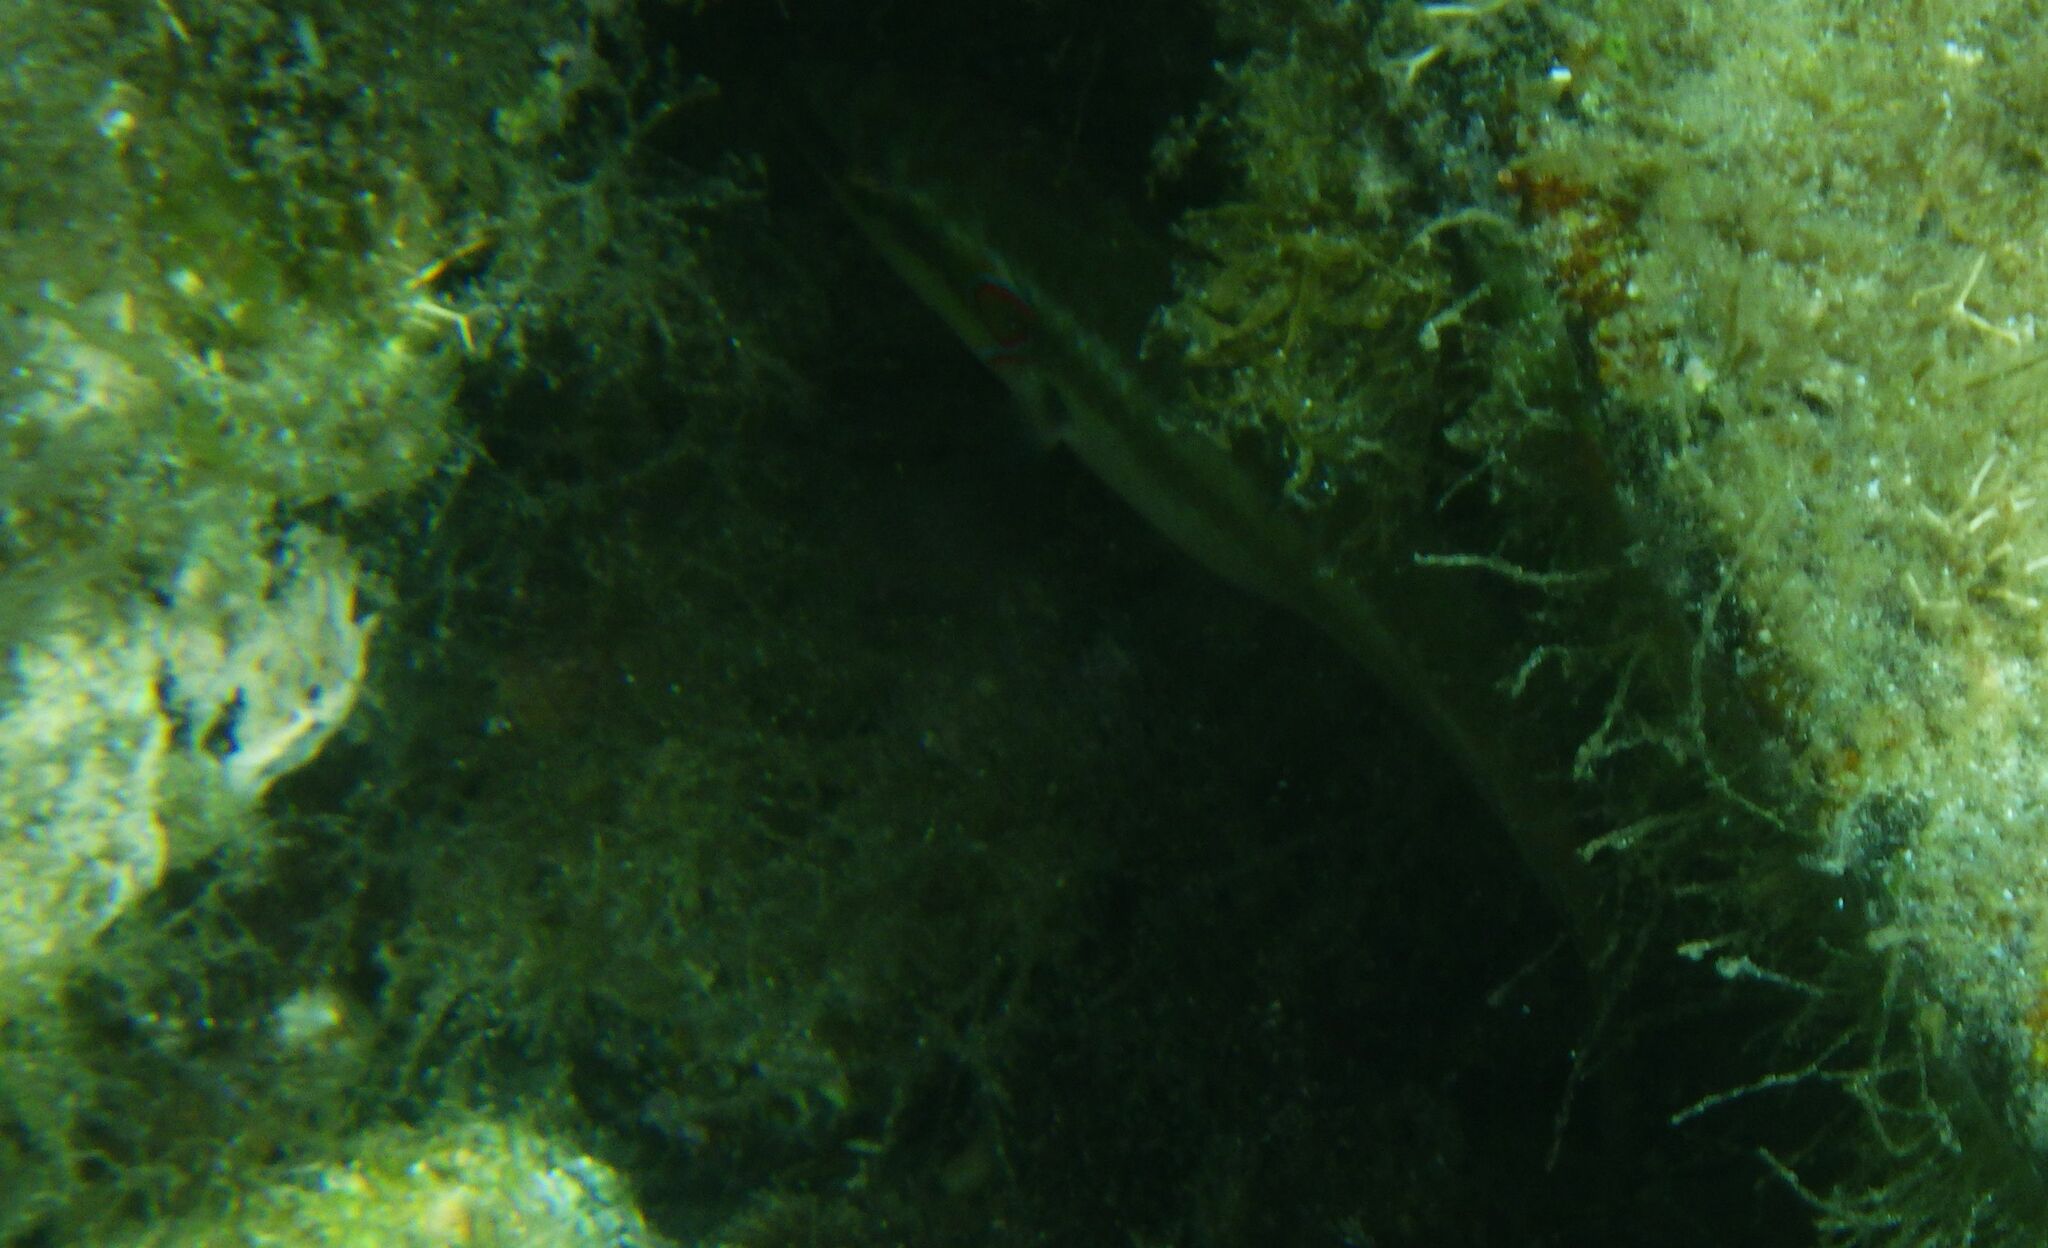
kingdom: Animalia
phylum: Chordata
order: Perciformes
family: Labridae
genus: Symphodus
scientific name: Symphodus ocellatus
